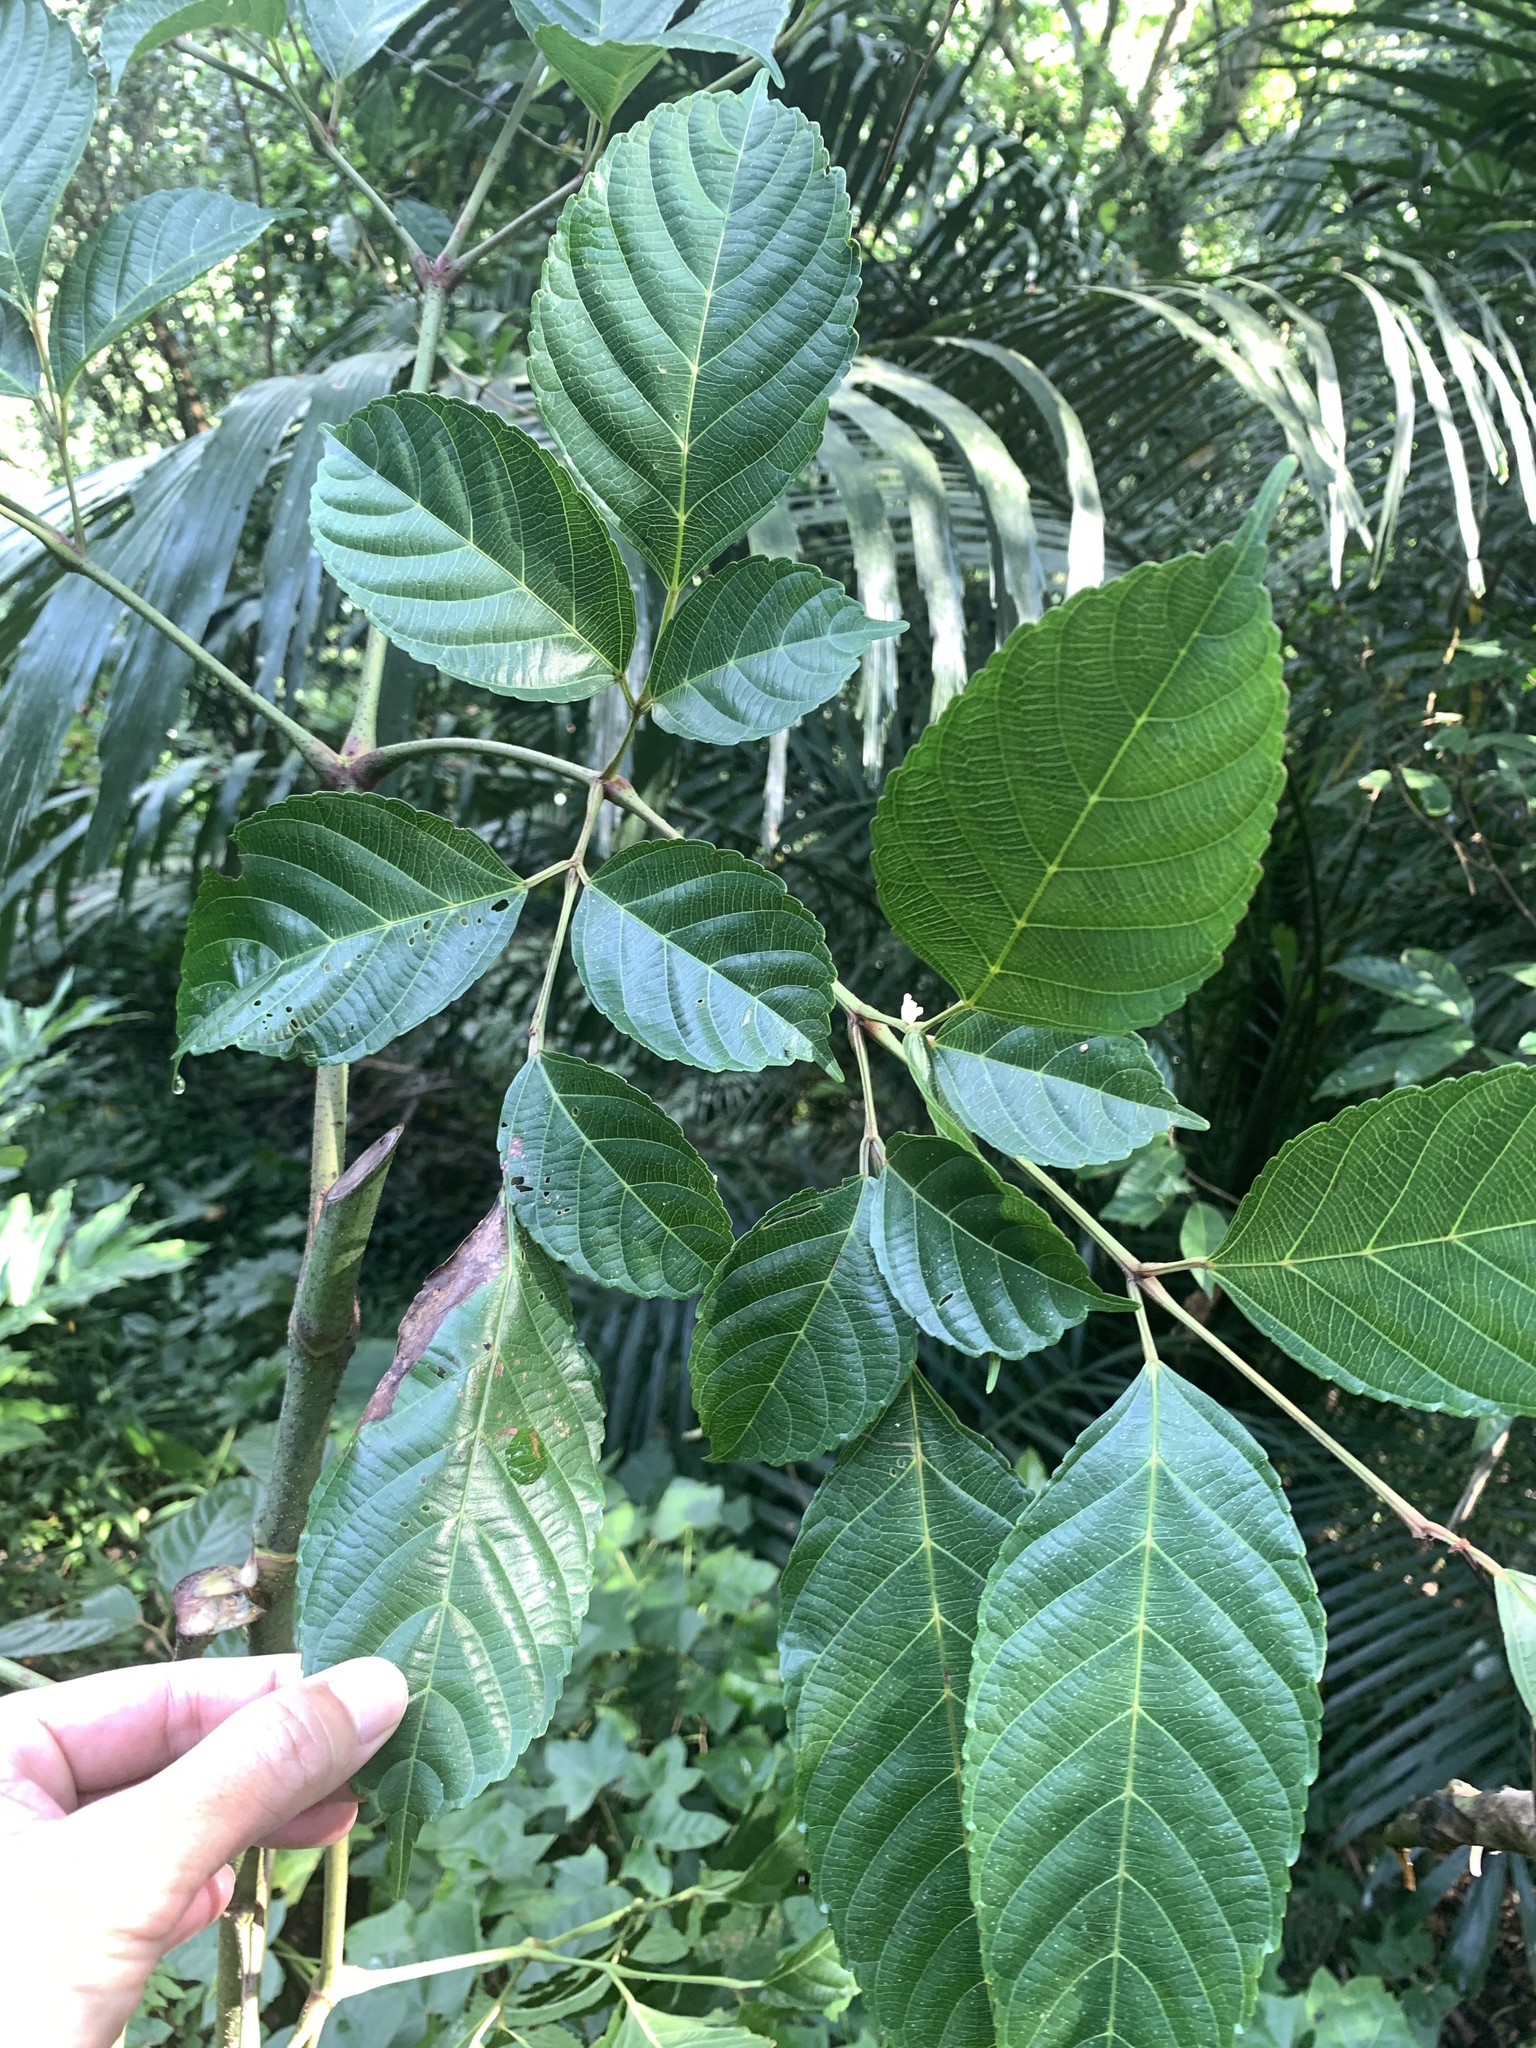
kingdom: Plantae
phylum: Tracheophyta
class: Magnoliopsida
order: Vitales
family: Vitaceae
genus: Leea
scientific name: Leea guineensis
